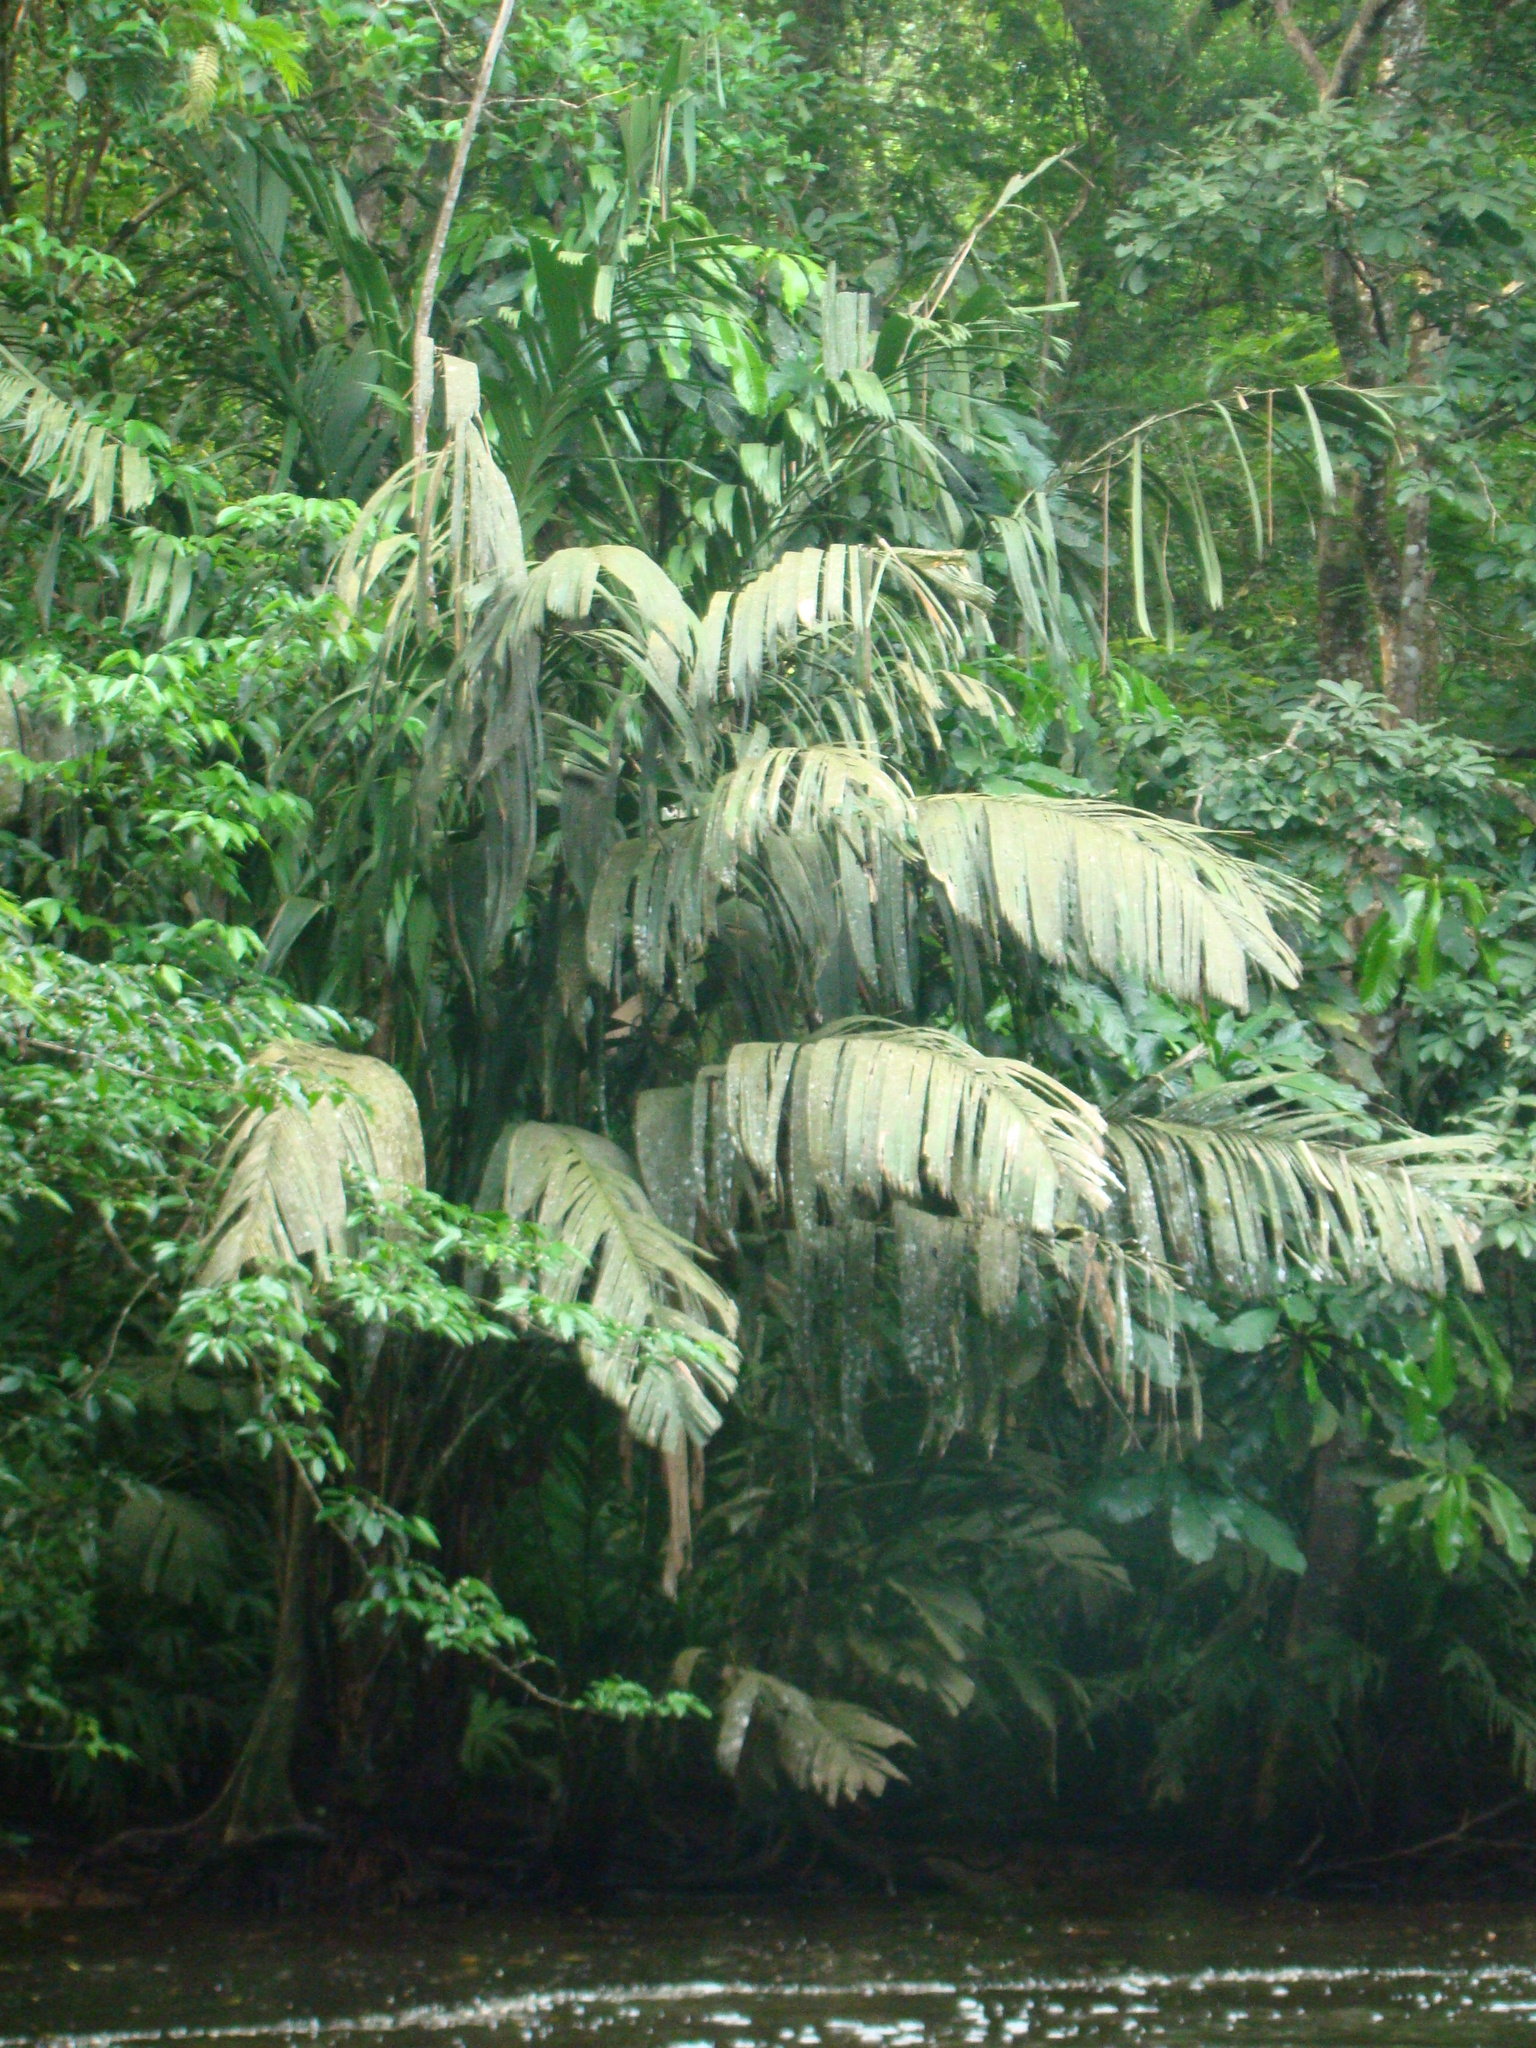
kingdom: Plantae
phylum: Tracheophyta
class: Liliopsida
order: Arecales
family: Arecaceae
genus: Manicaria
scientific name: Manicaria saccifera
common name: Sea coconut
